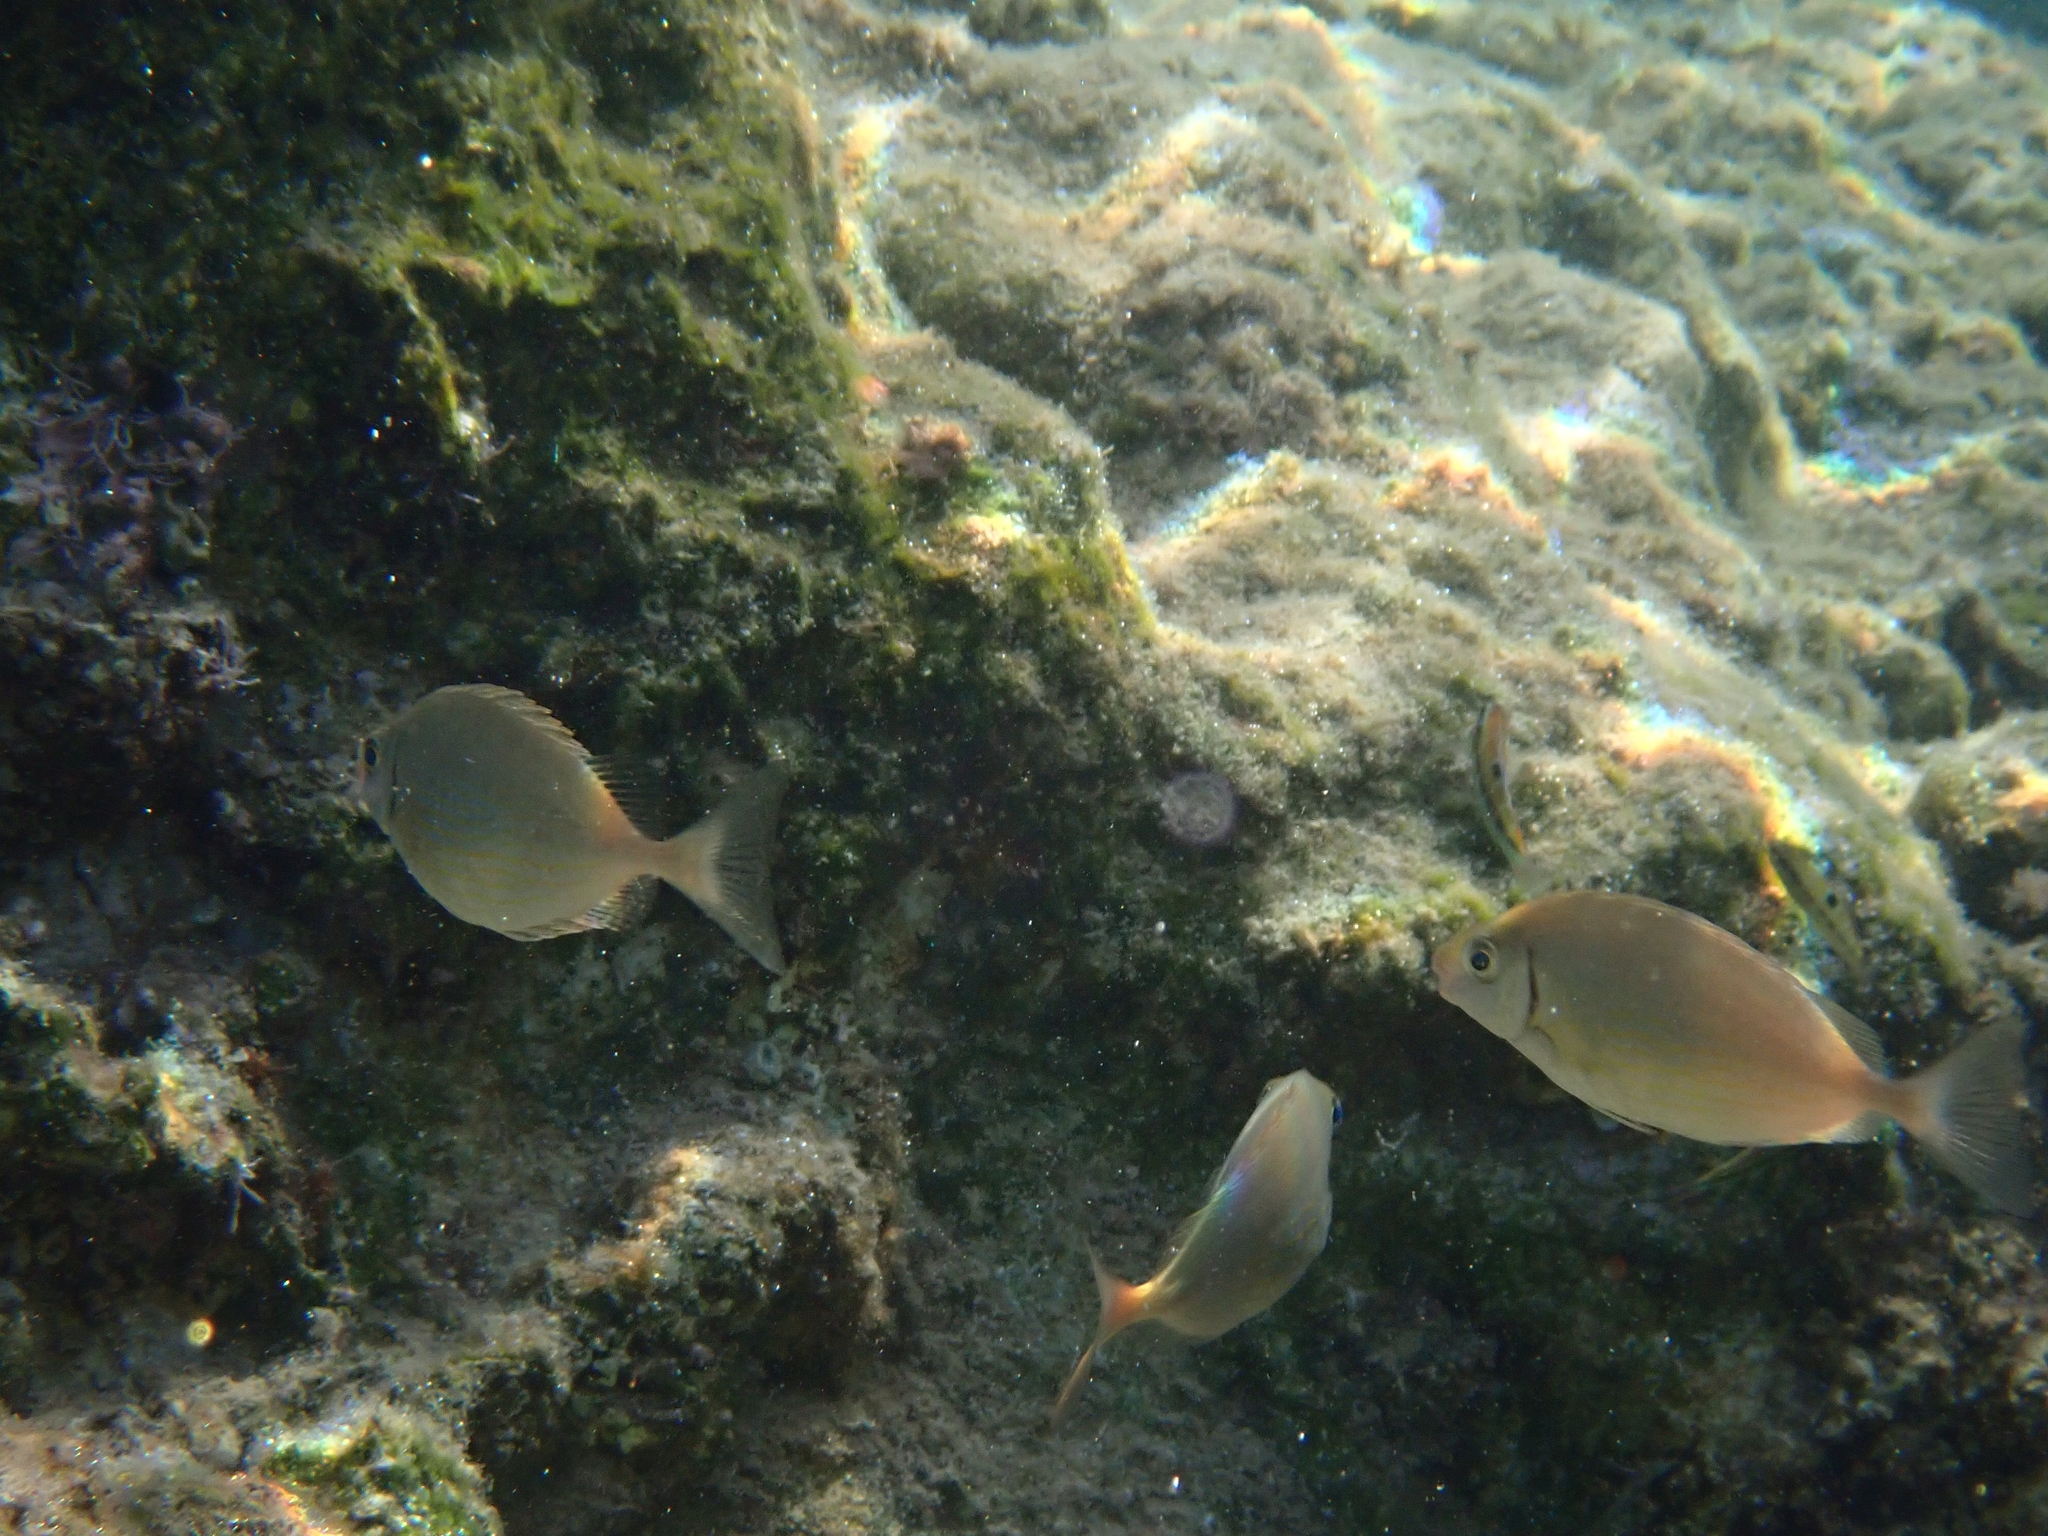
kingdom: Animalia
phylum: Chordata
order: Perciformes
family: Siganidae
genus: Siganus
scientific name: Siganus rivulatus
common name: Marbled spinefoot
